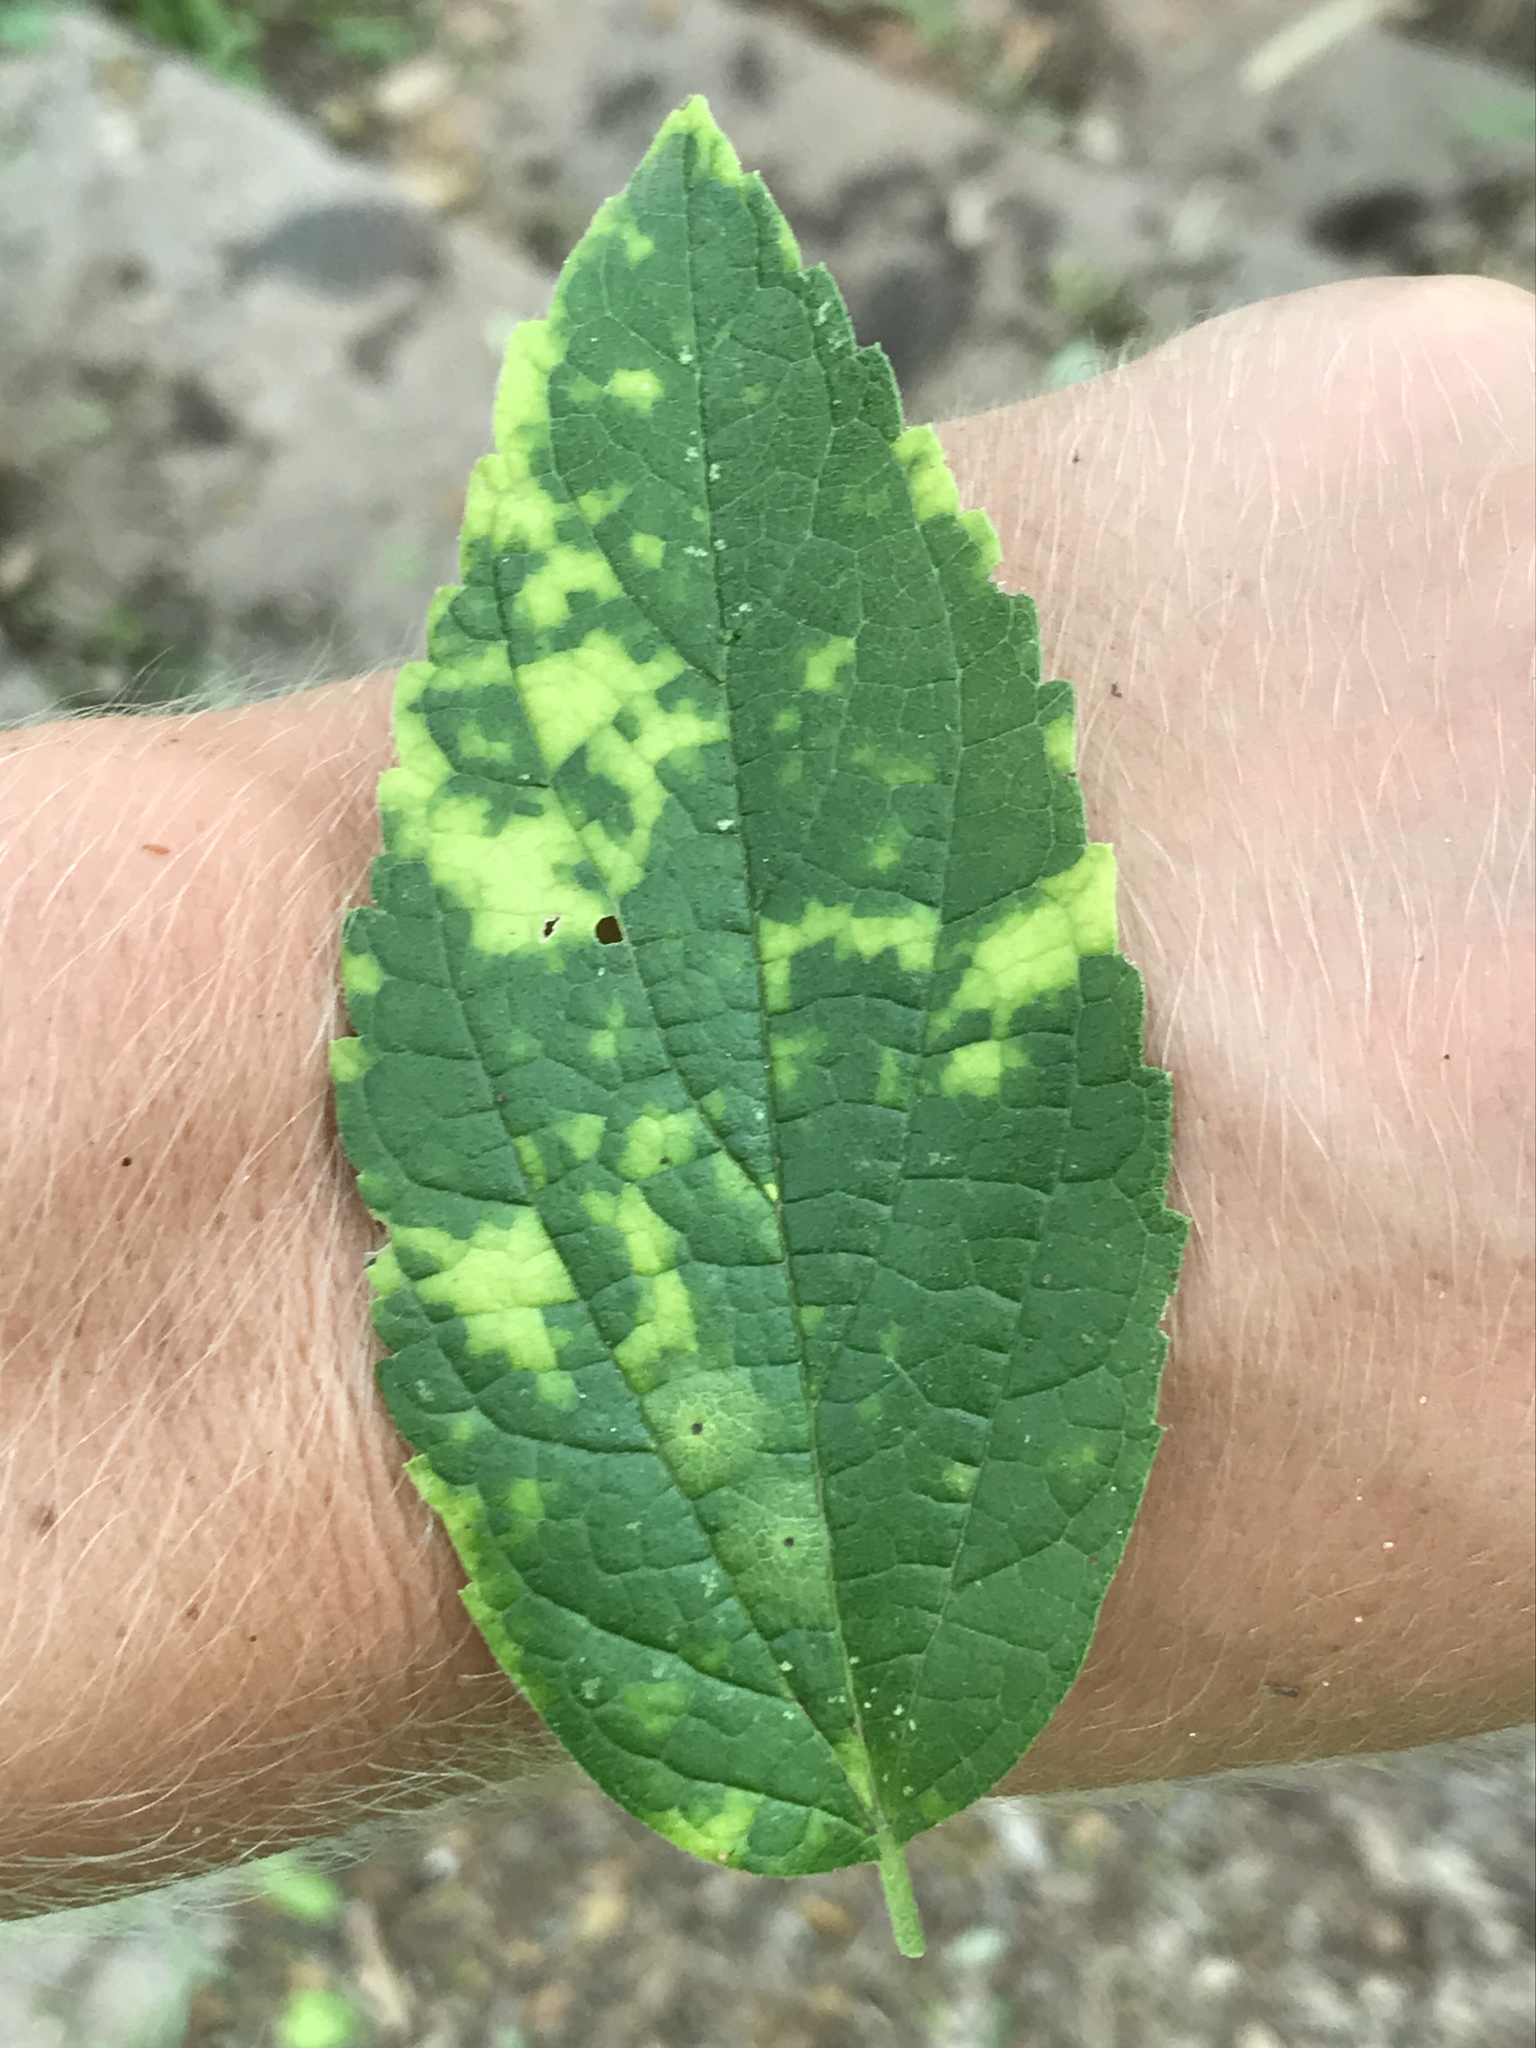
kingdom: Viruses
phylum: Kitrinoviricota
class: Alsuviricetes
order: Martellivirales
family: Closteroviridae
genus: Ampelovirus
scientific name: Ampelovirus
